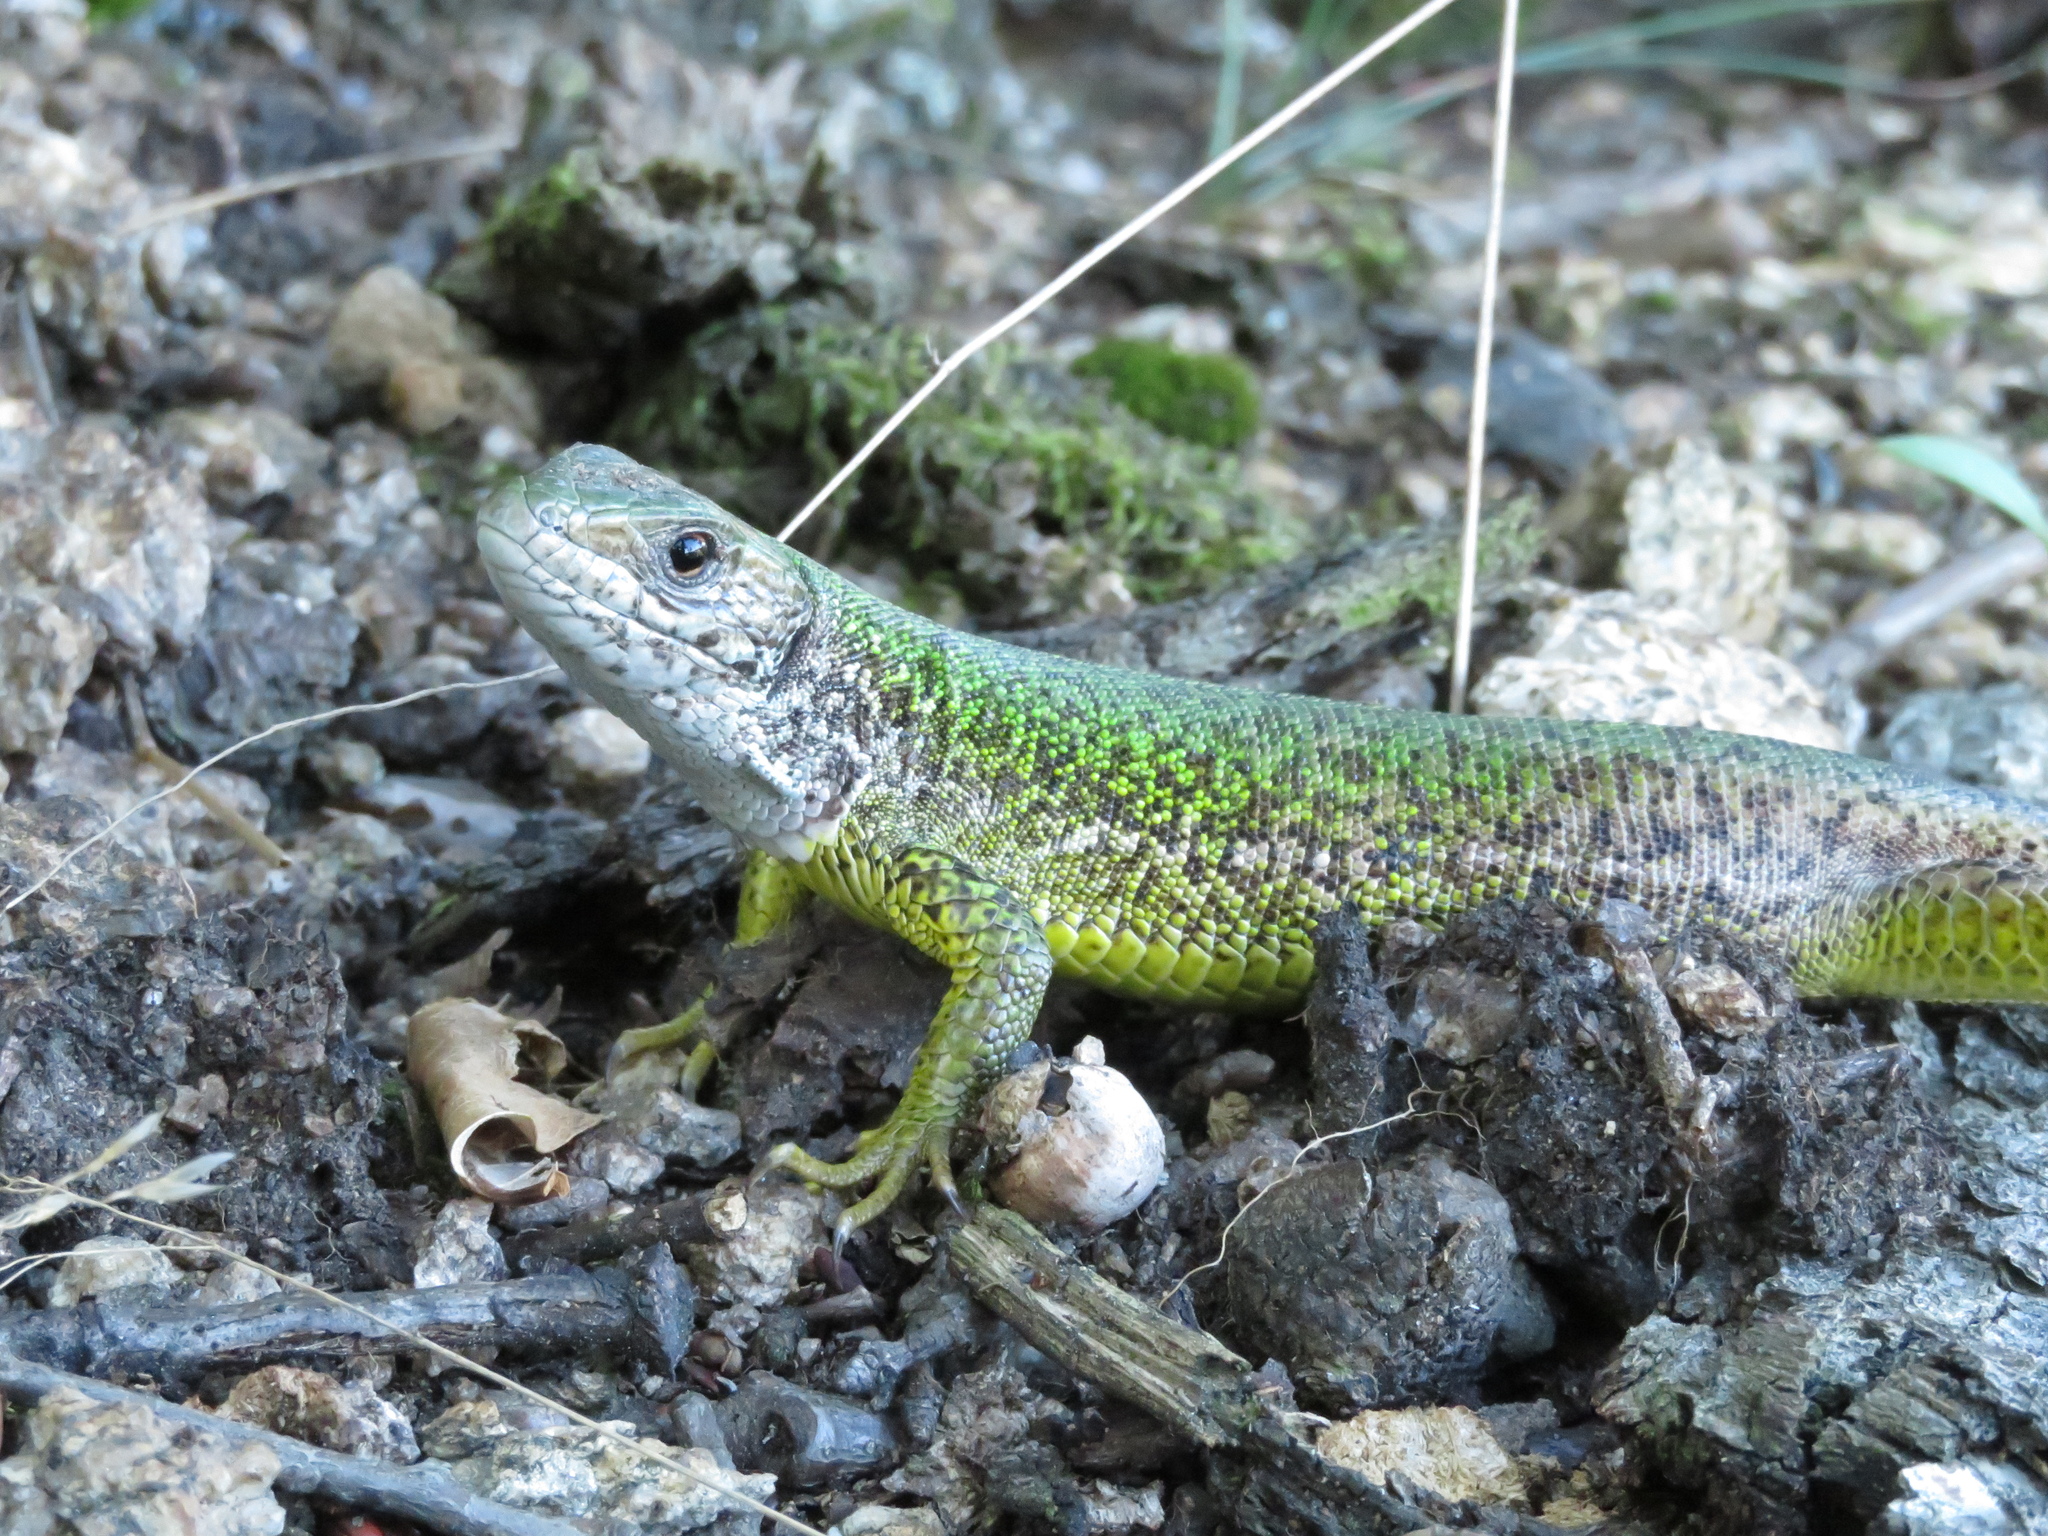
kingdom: Animalia
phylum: Chordata
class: Squamata
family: Lacertidae
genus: Lacerta
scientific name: Lacerta viridis
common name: European green lizard
